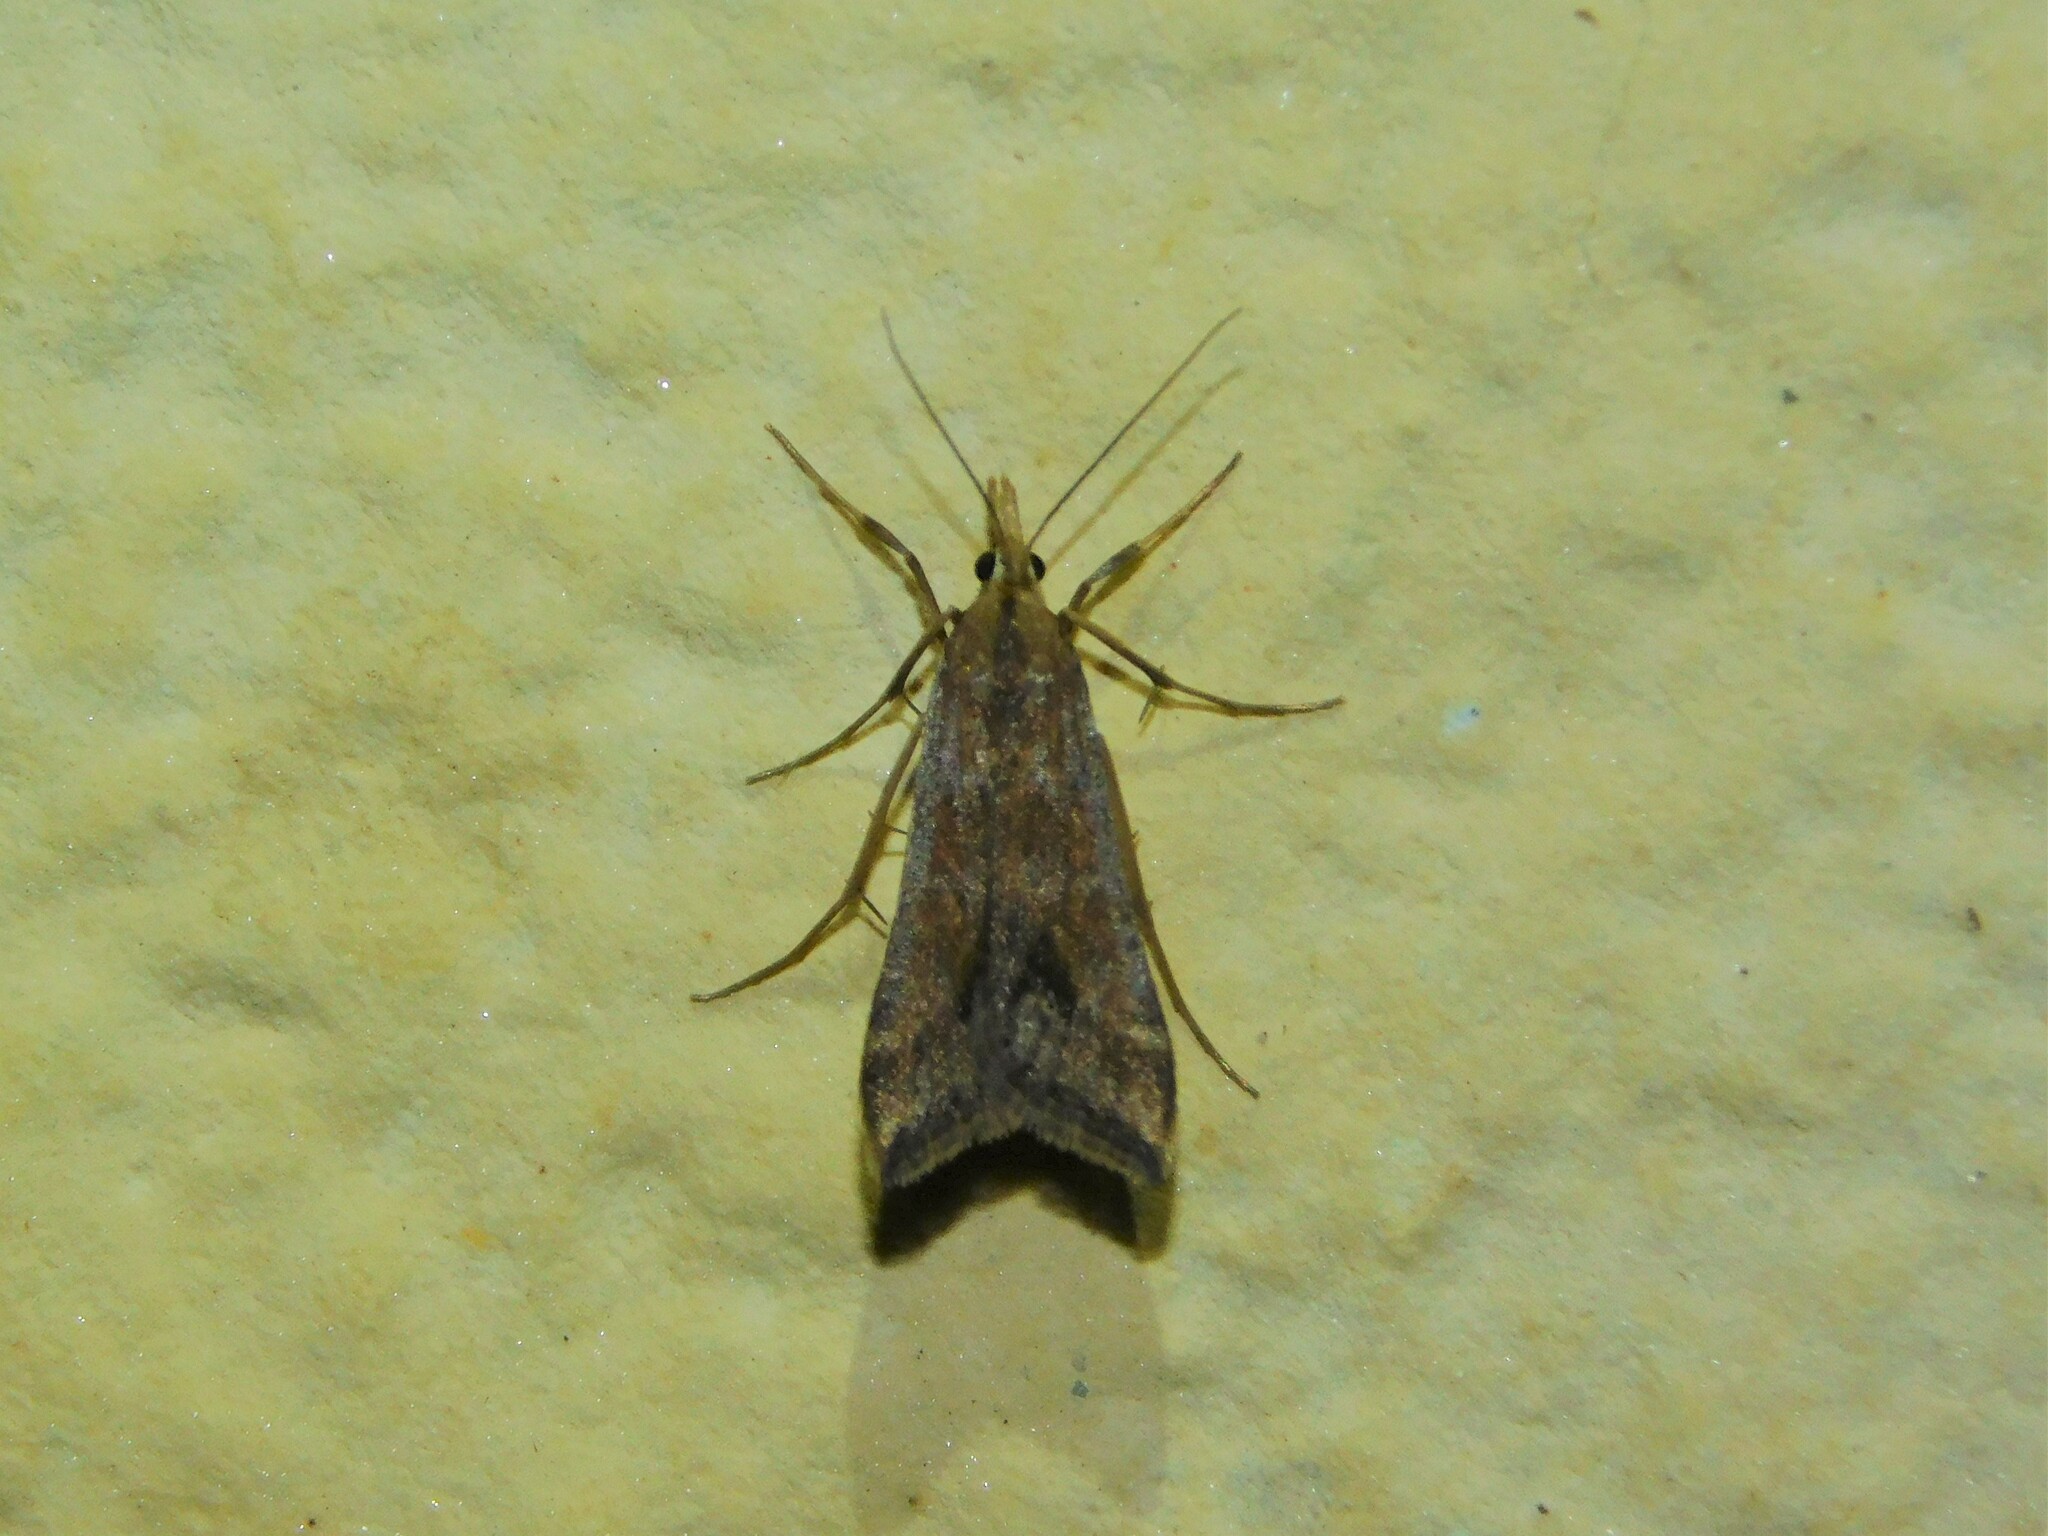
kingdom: Animalia
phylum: Arthropoda
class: Insecta
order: Lepidoptera
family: Crambidae
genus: Diasemia
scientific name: Diasemia monostigma
